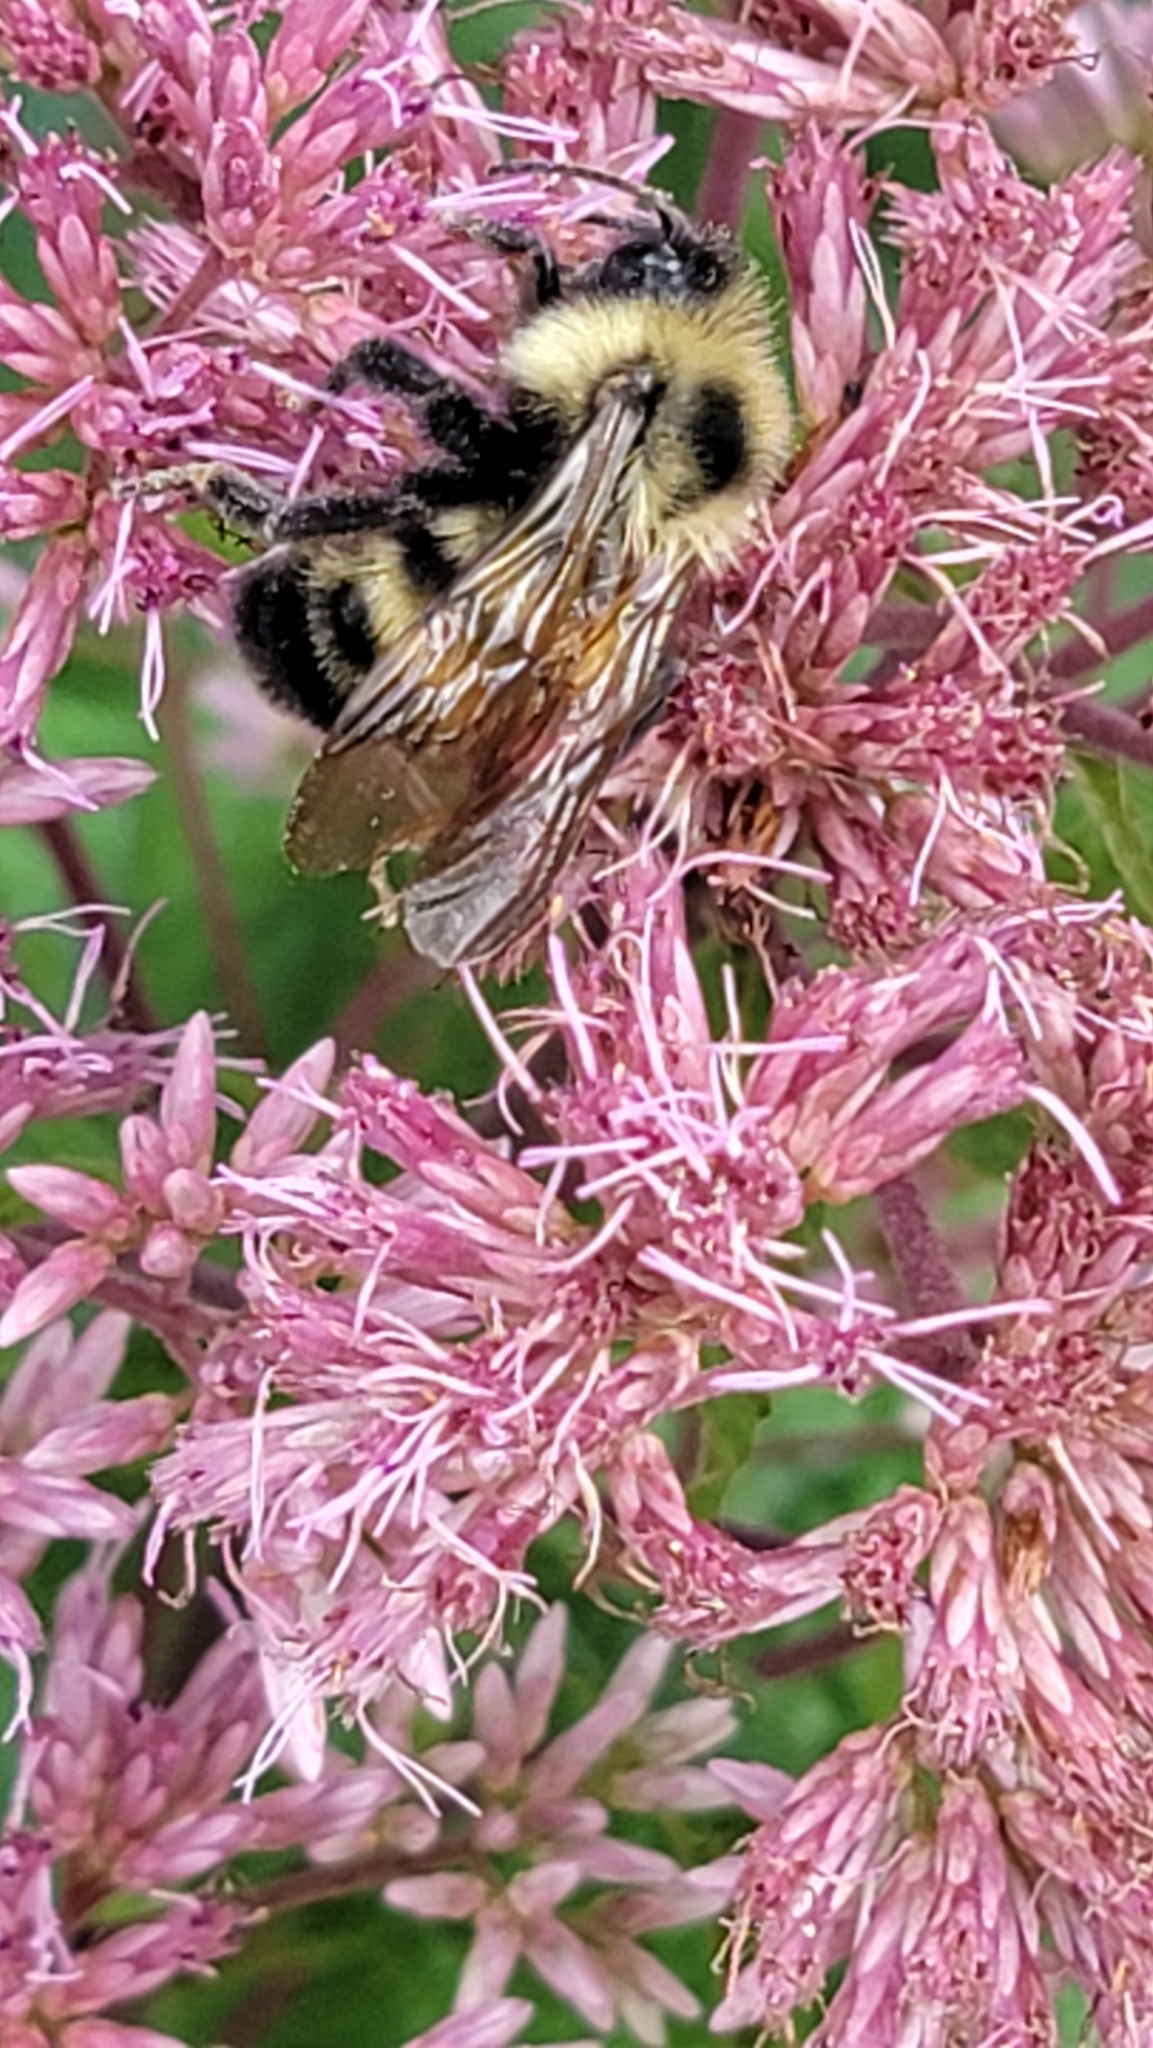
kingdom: Animalia
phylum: Arthropoda
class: Insecta
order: Hymenoptera
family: Apidae
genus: Bombus
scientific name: Bombus citrinus
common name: Lemon cuckoo bumble bee
